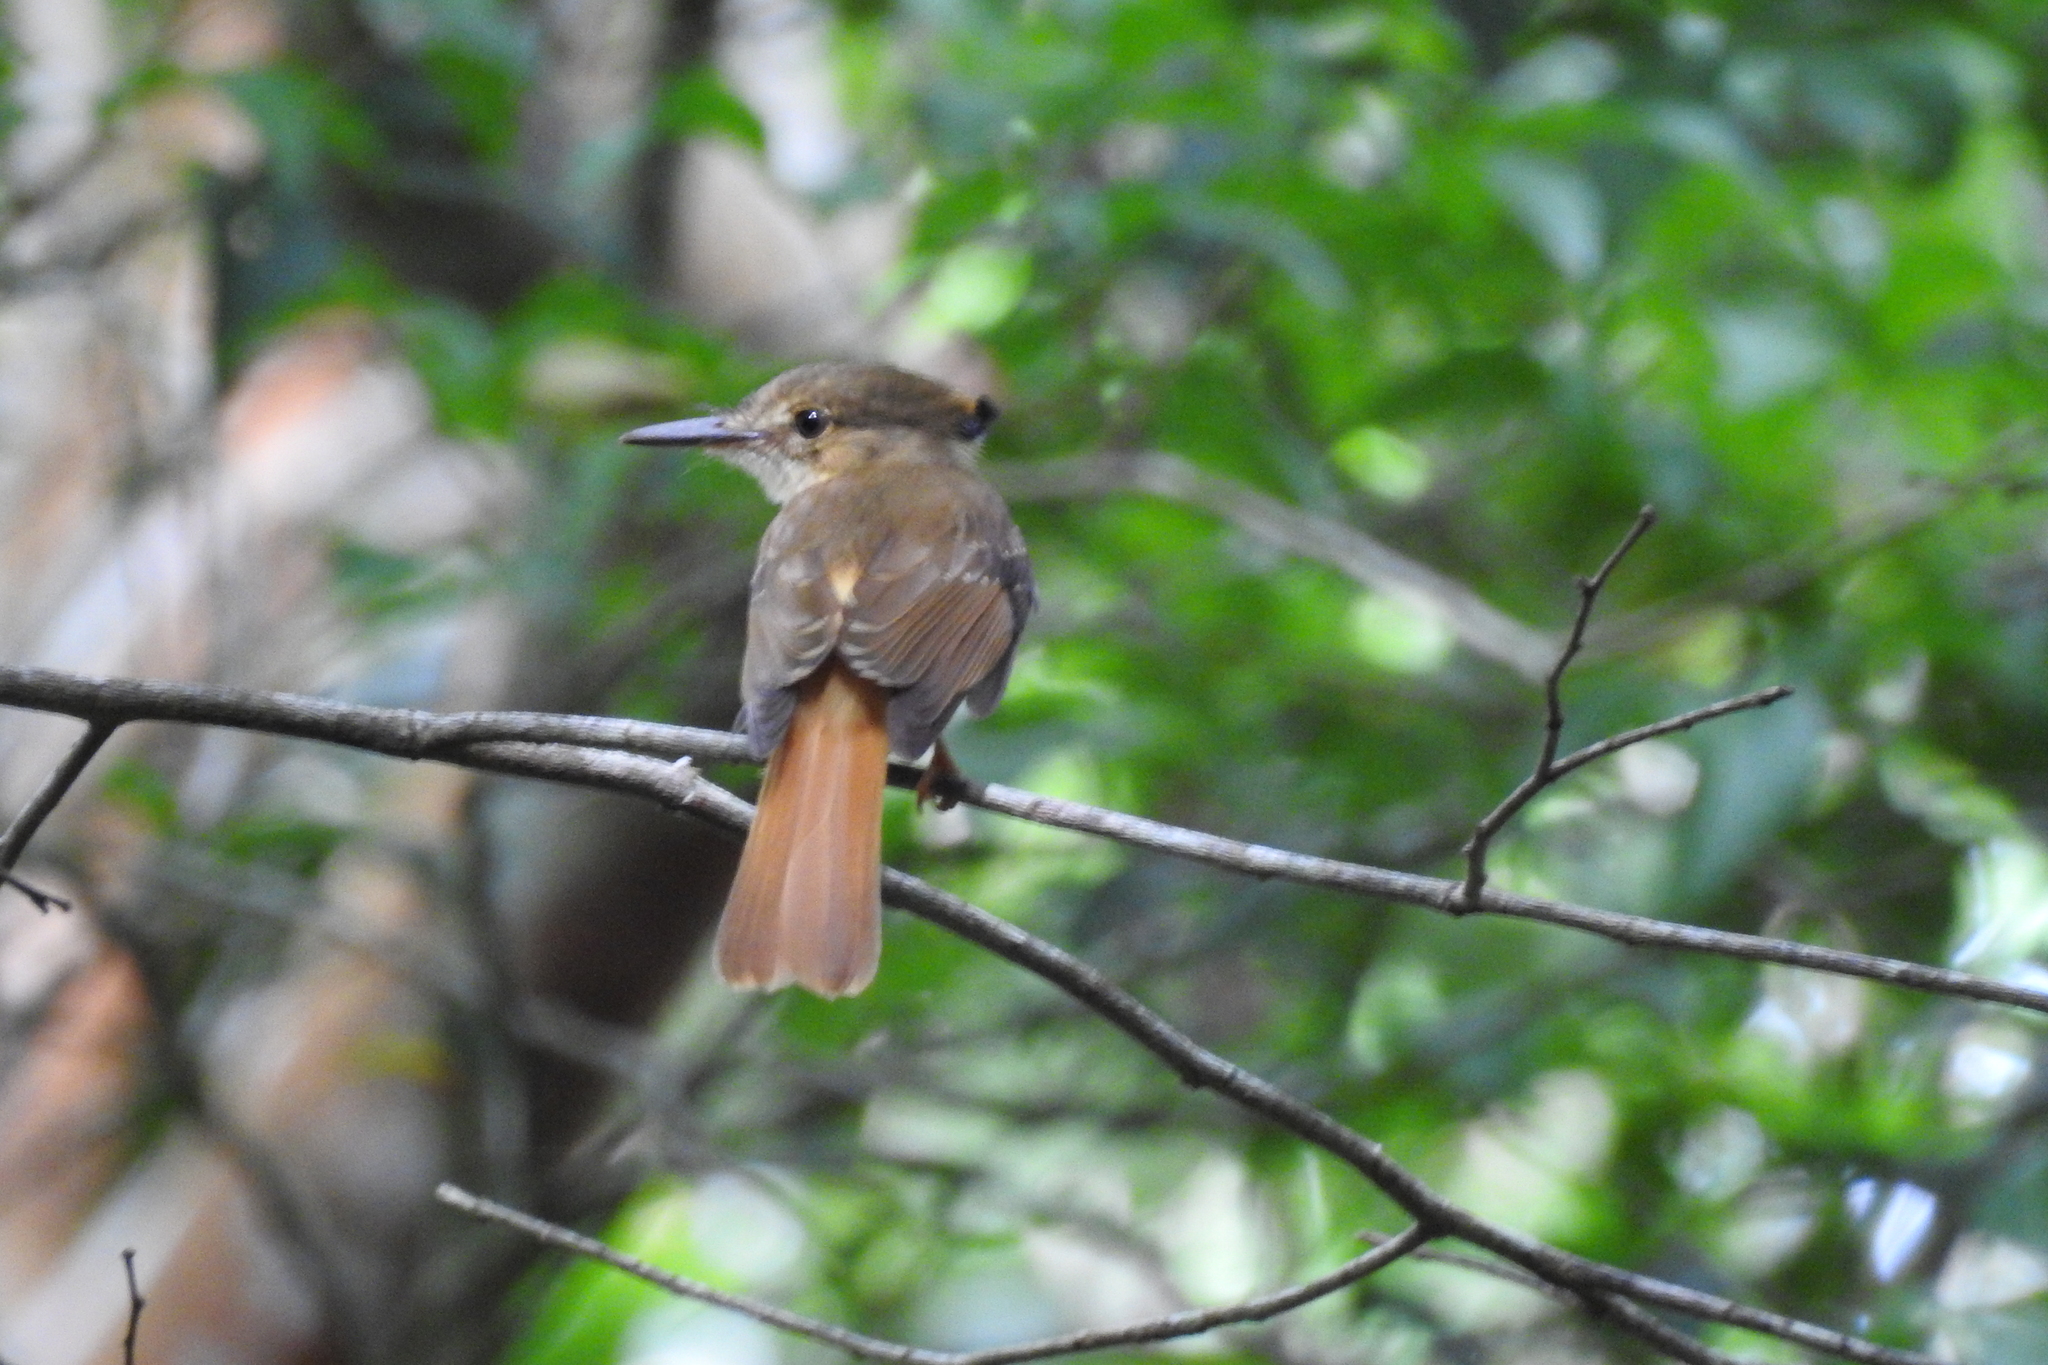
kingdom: Animalia
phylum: Chordata
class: Aves
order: Passeriformes
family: Tyrannidae
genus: Onychorhynchus
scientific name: Onychorhynchus coronatus
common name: Royal flycatcher
